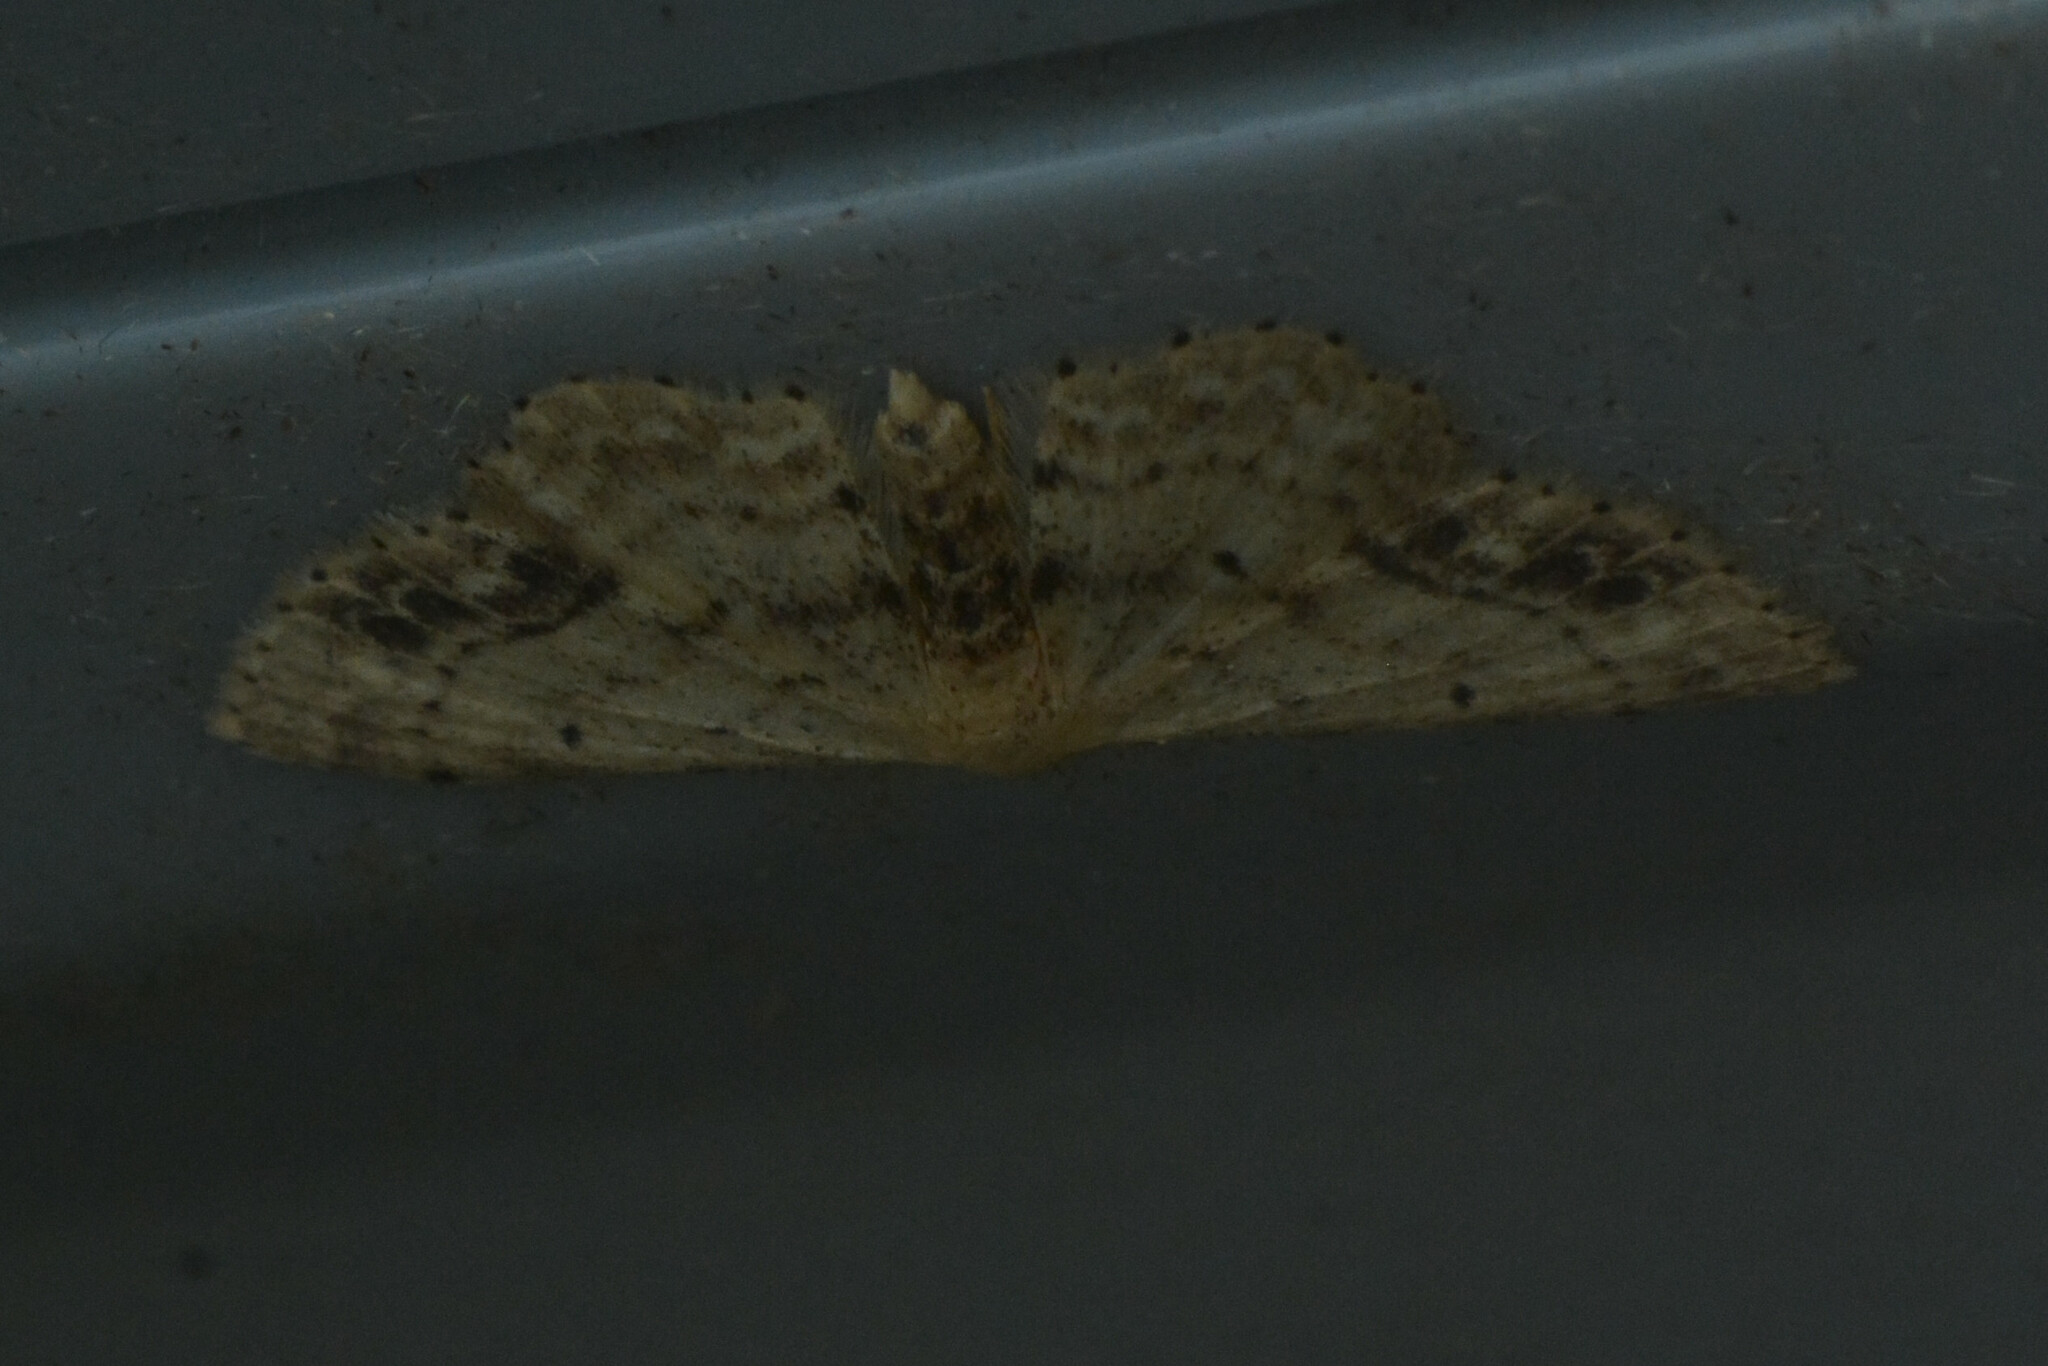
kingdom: Animalia
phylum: Arthropoda
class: Insecta
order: Lepidoptera
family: Geometridae
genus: Idaea
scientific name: Idaea dimidiata
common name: Single-dotted wave
